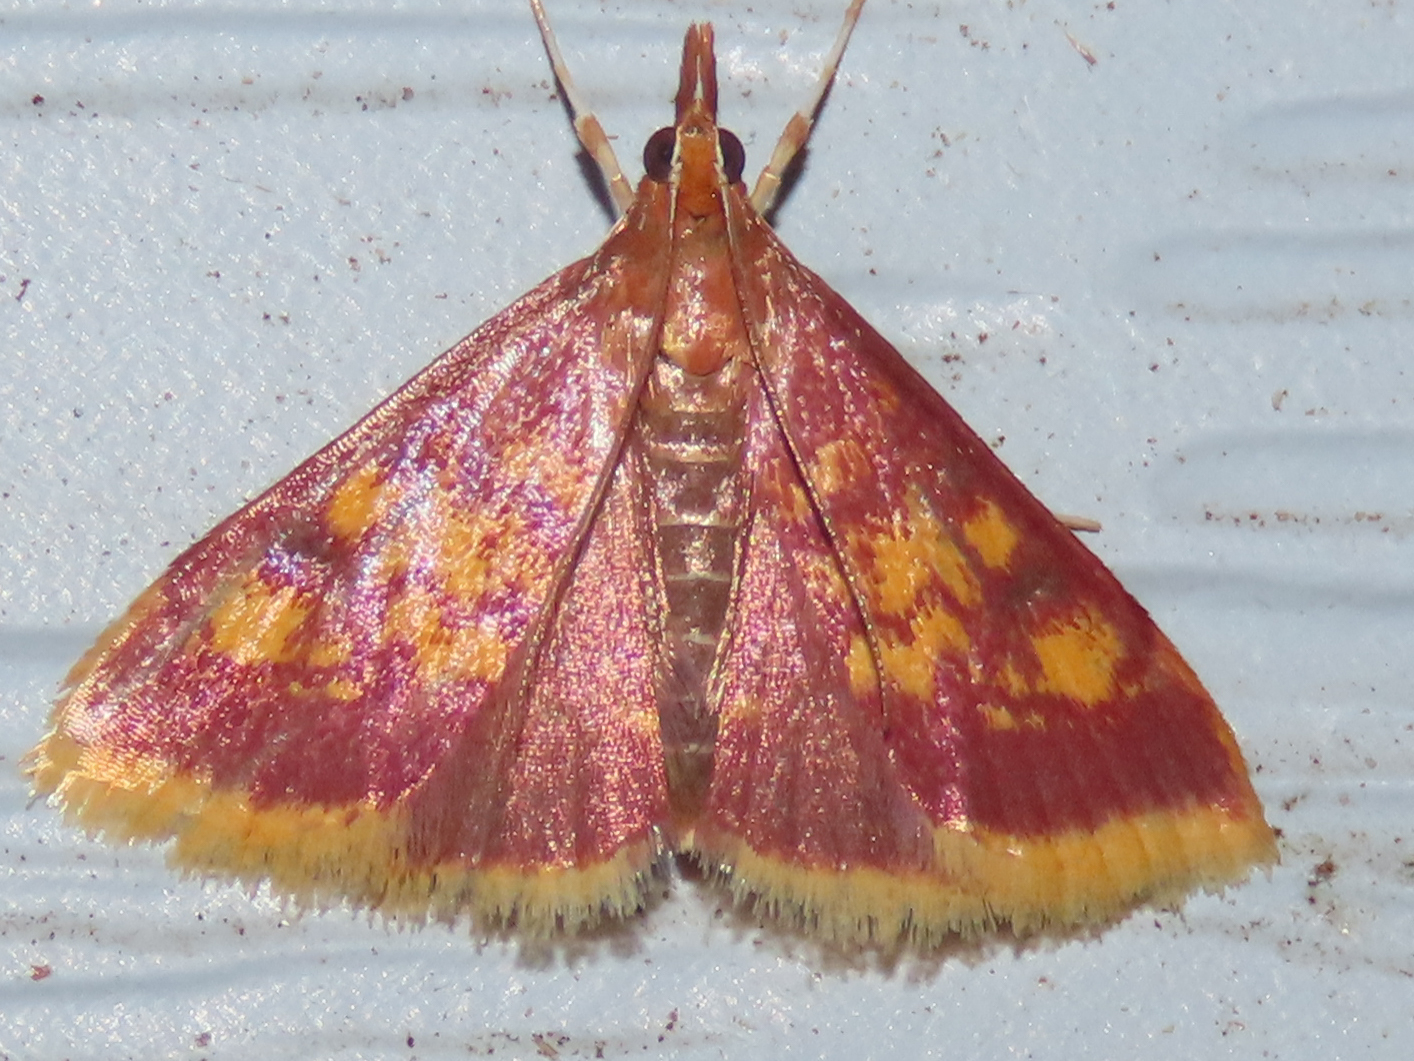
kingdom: Animalia
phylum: Arthropoda
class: Insecta
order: Lepidoptera
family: Crambidae
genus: Pyrausta
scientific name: Pyrausta acrionalis
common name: Mint-loving pyrausta moth
